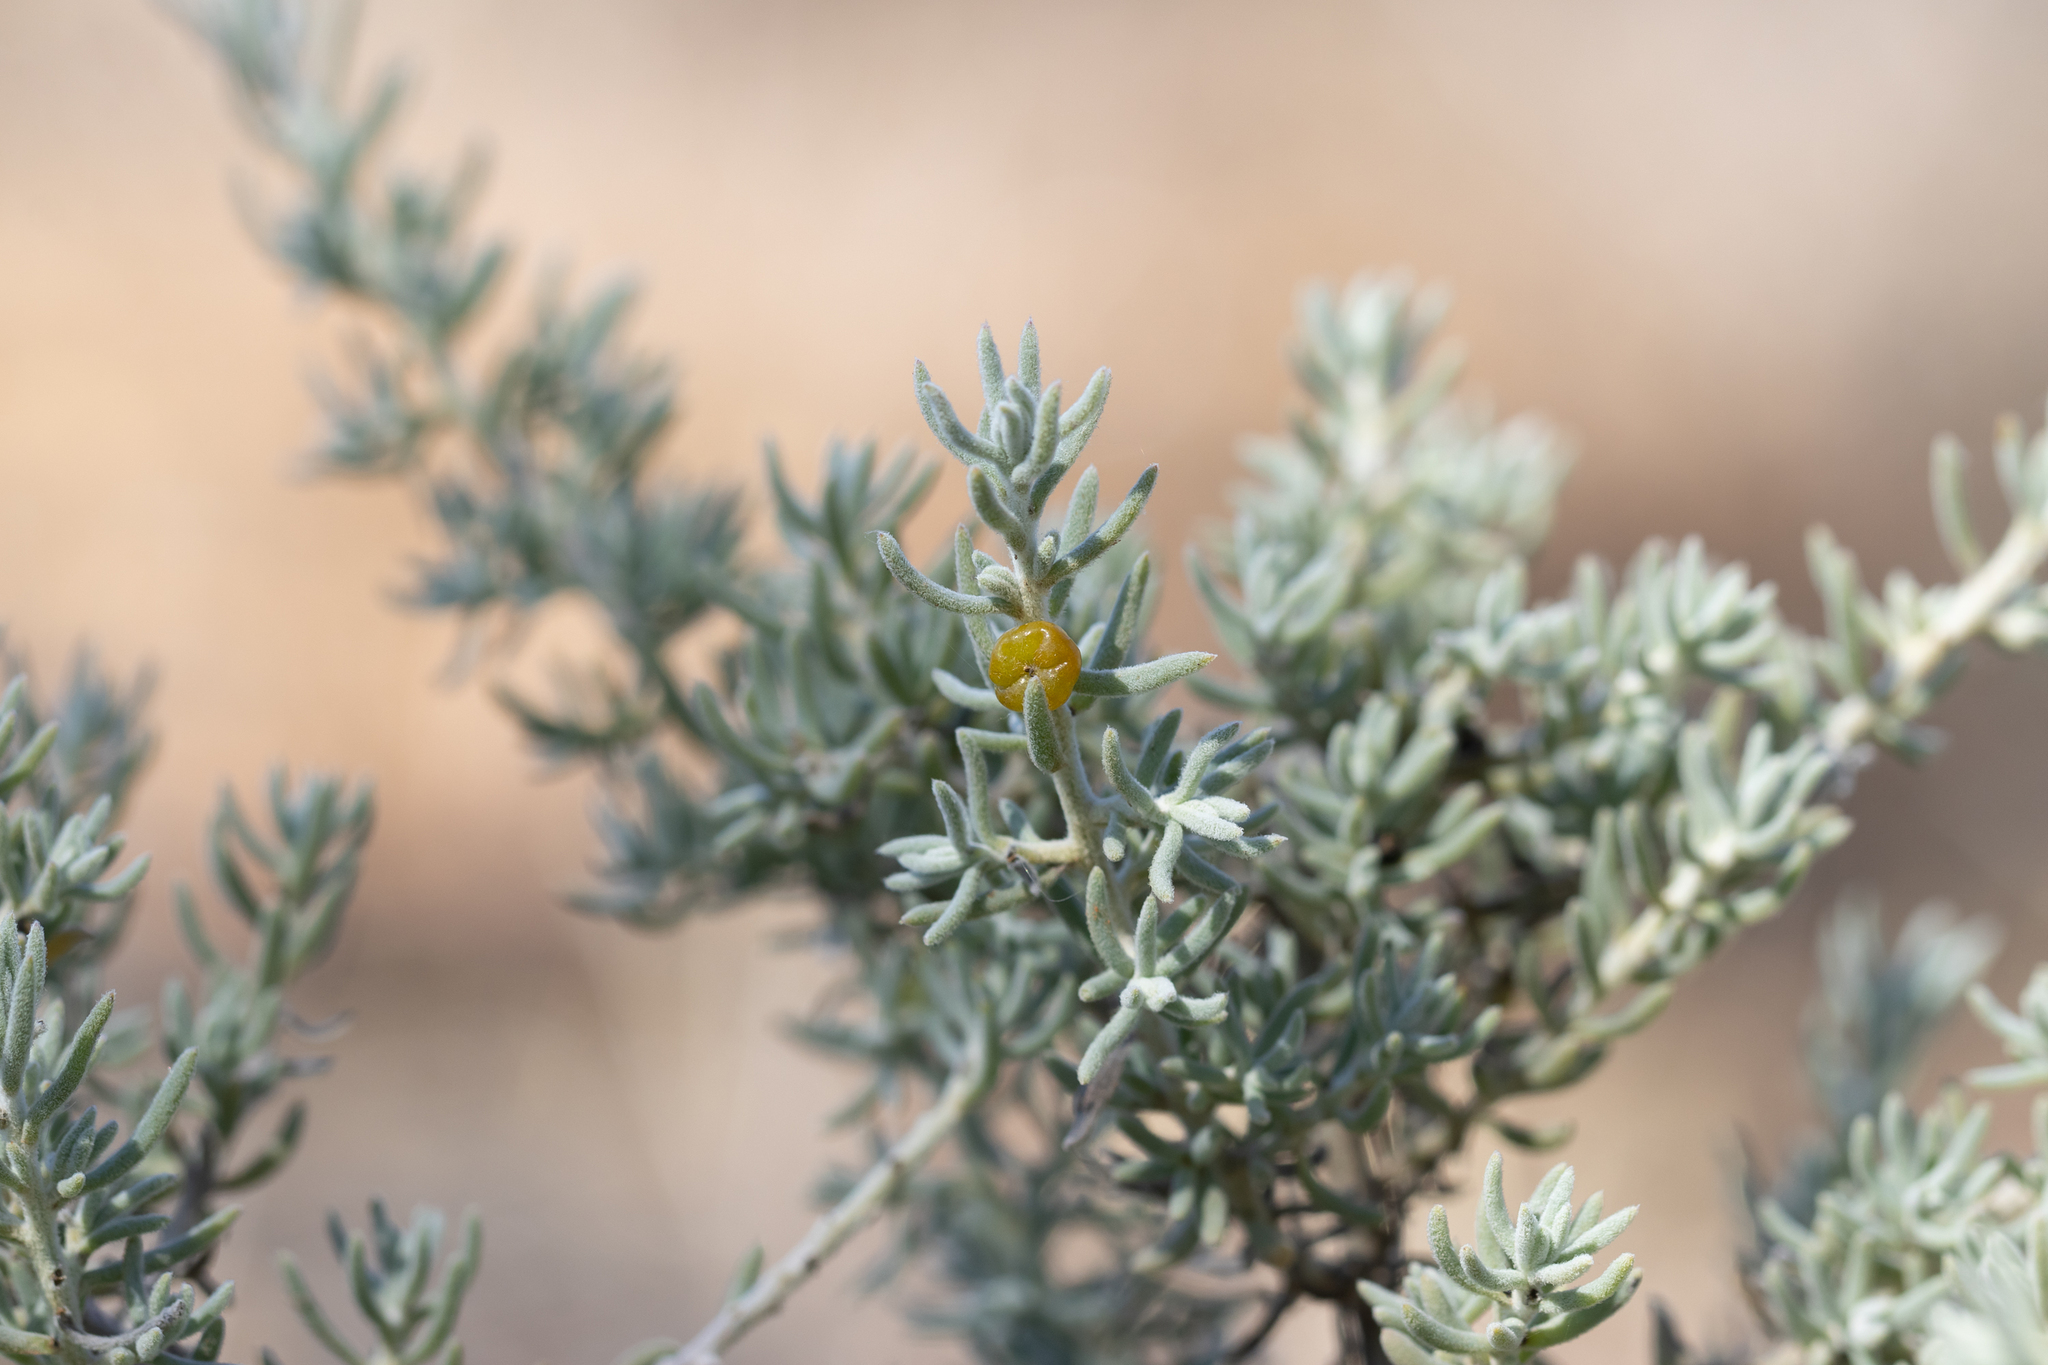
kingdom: Plantae
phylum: Tracheophyta
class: Magnoliopsida
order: Caryophyllales
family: Amaranthaceae
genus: Enchylaena
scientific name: Enchylaena tomentosa
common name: Ruby saltbush
